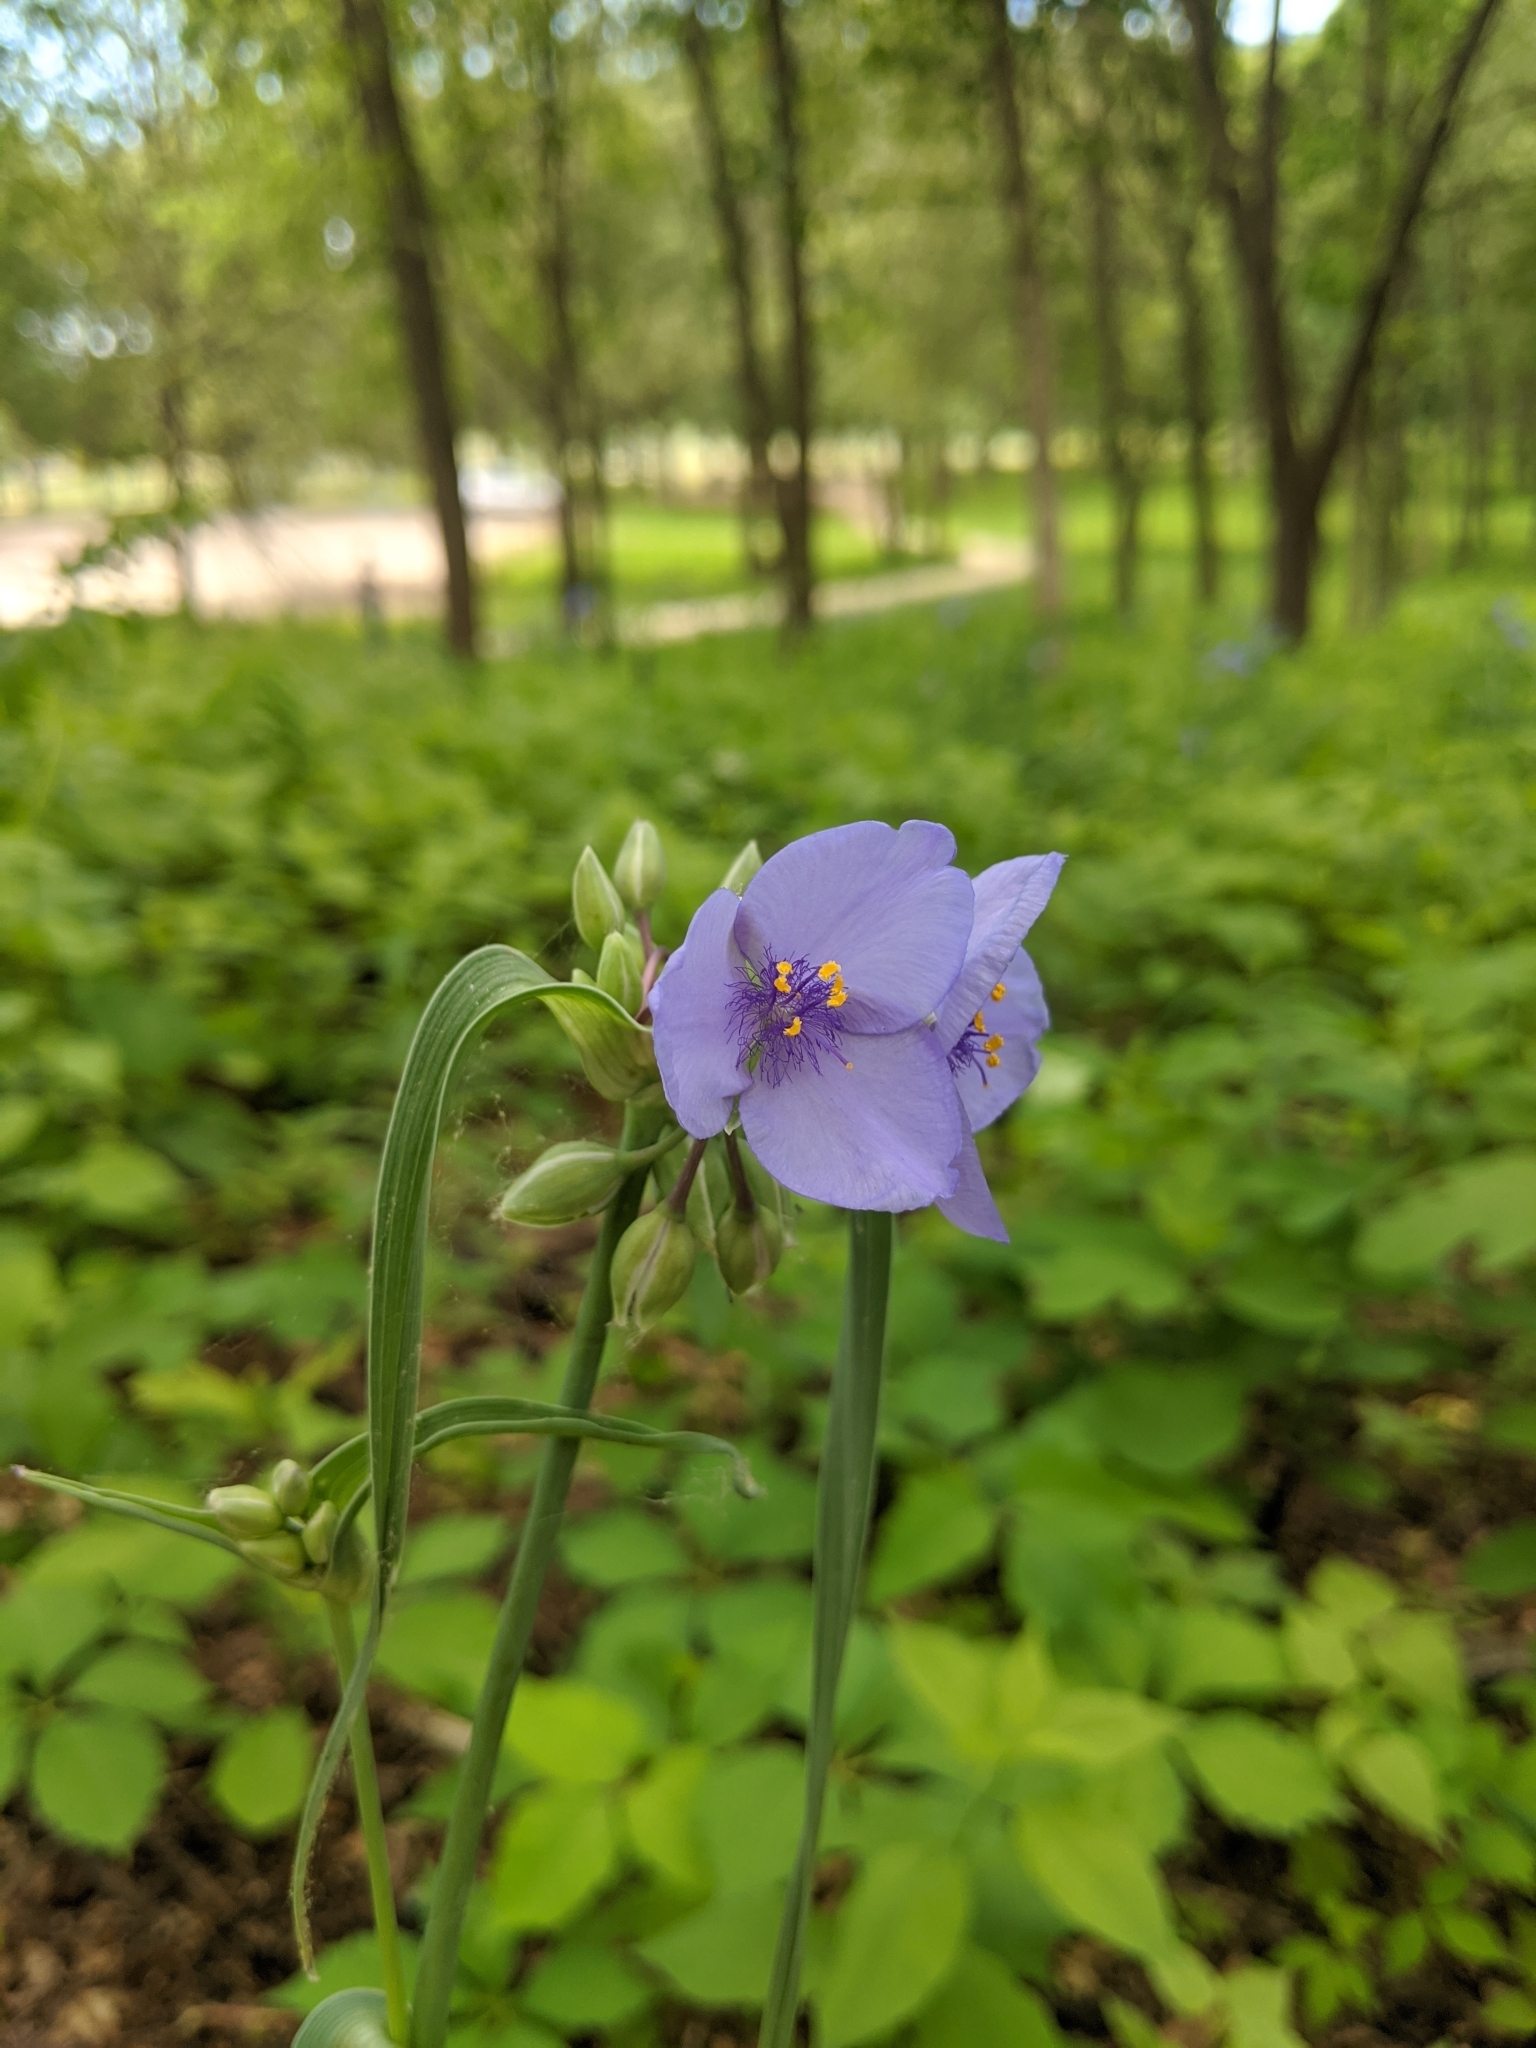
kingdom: Plantae
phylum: Tracheophyta
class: Liliopsida
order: Commelinales
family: Commelinaceae
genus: Tradescantia
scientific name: Tradescantia ohiensis
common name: Ohio spiderwort
